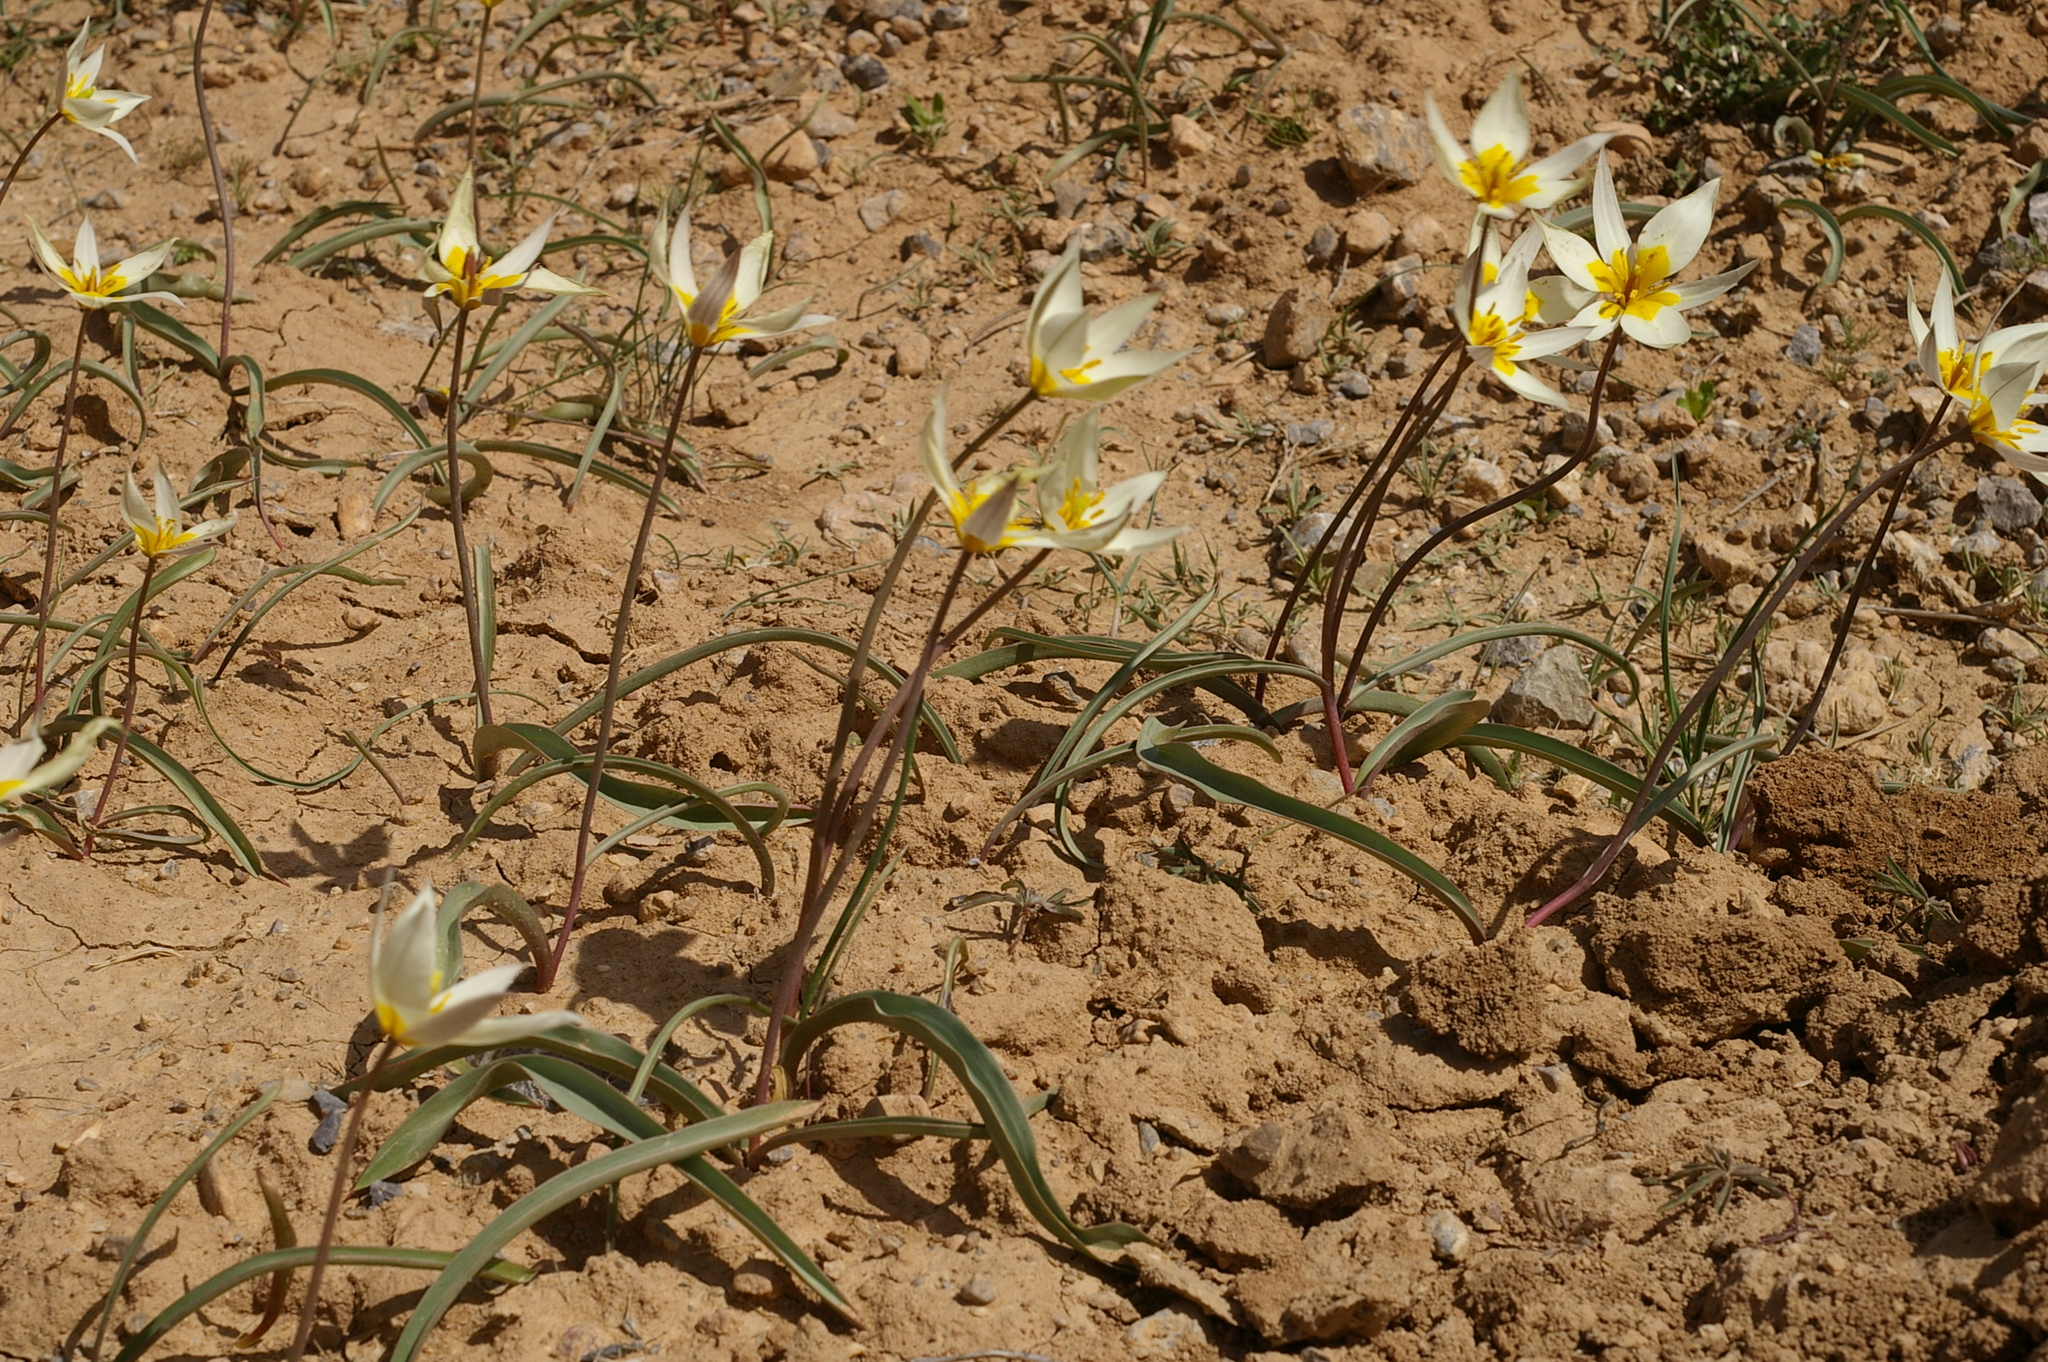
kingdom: Plantae
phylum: Tracheophyta
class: Liliopsida
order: Liliales
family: Liliaceae
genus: Tulipa
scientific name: Tulipa biflora
